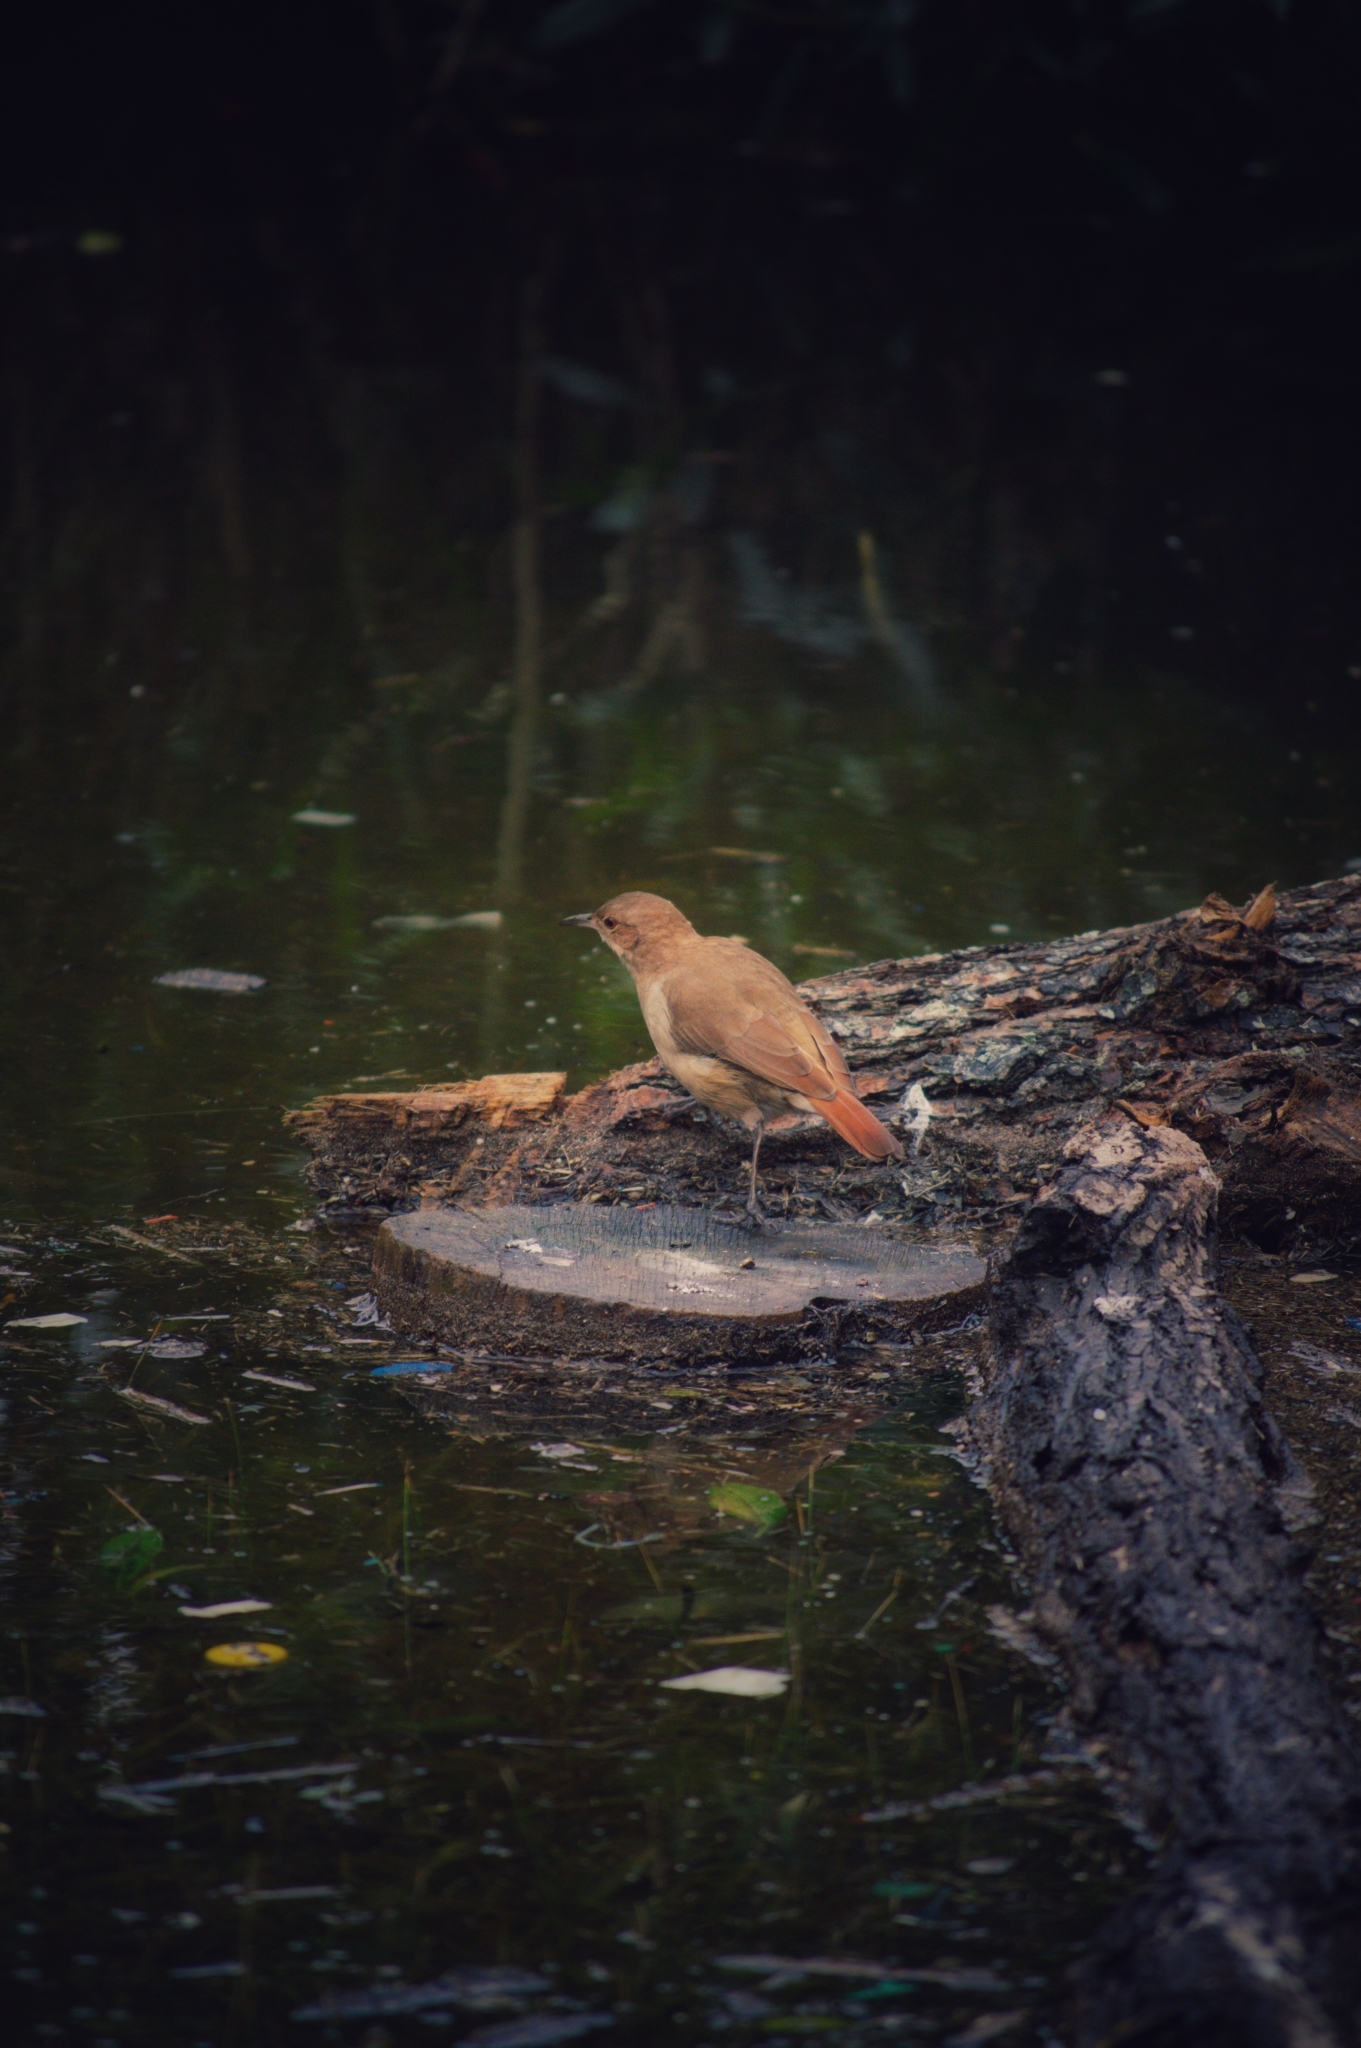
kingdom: Animalia
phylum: Chordata
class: Aves
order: Passeriformes
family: Furnariidae
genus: Furnarius
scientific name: Furnarius rufus
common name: Rufous hornero
